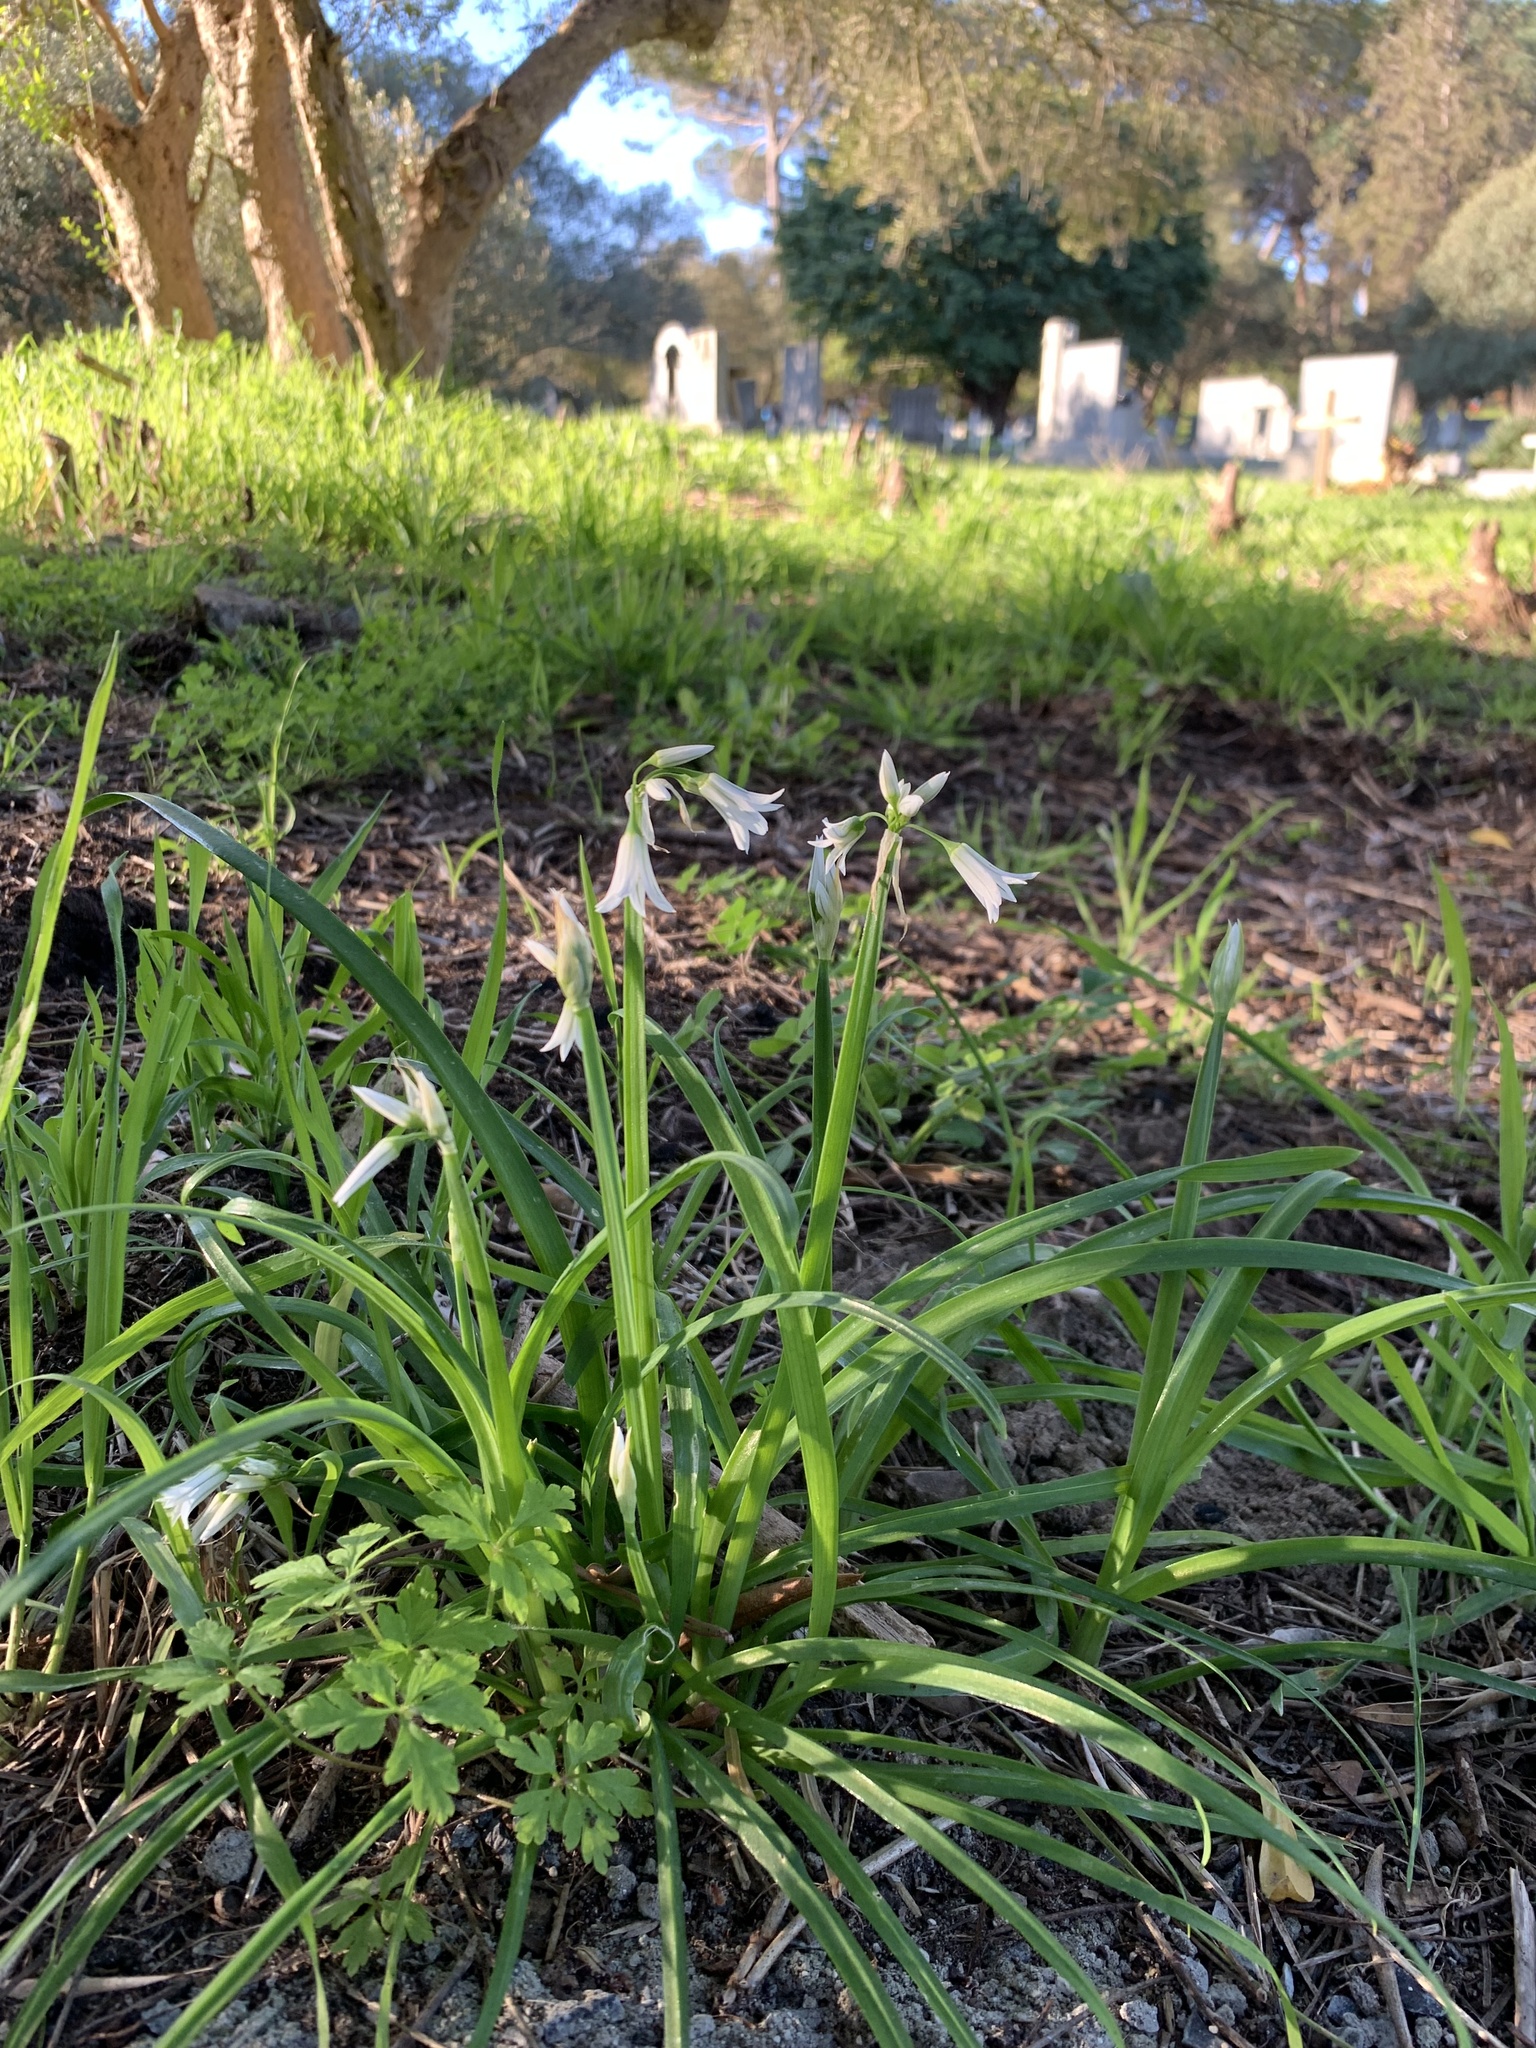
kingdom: Plantae
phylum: Tracheophyta
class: Liliopsida
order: Asparagales
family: Amaryllidaceae
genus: Allium
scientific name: Allium triquetrum
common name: Three-cornered garlic
